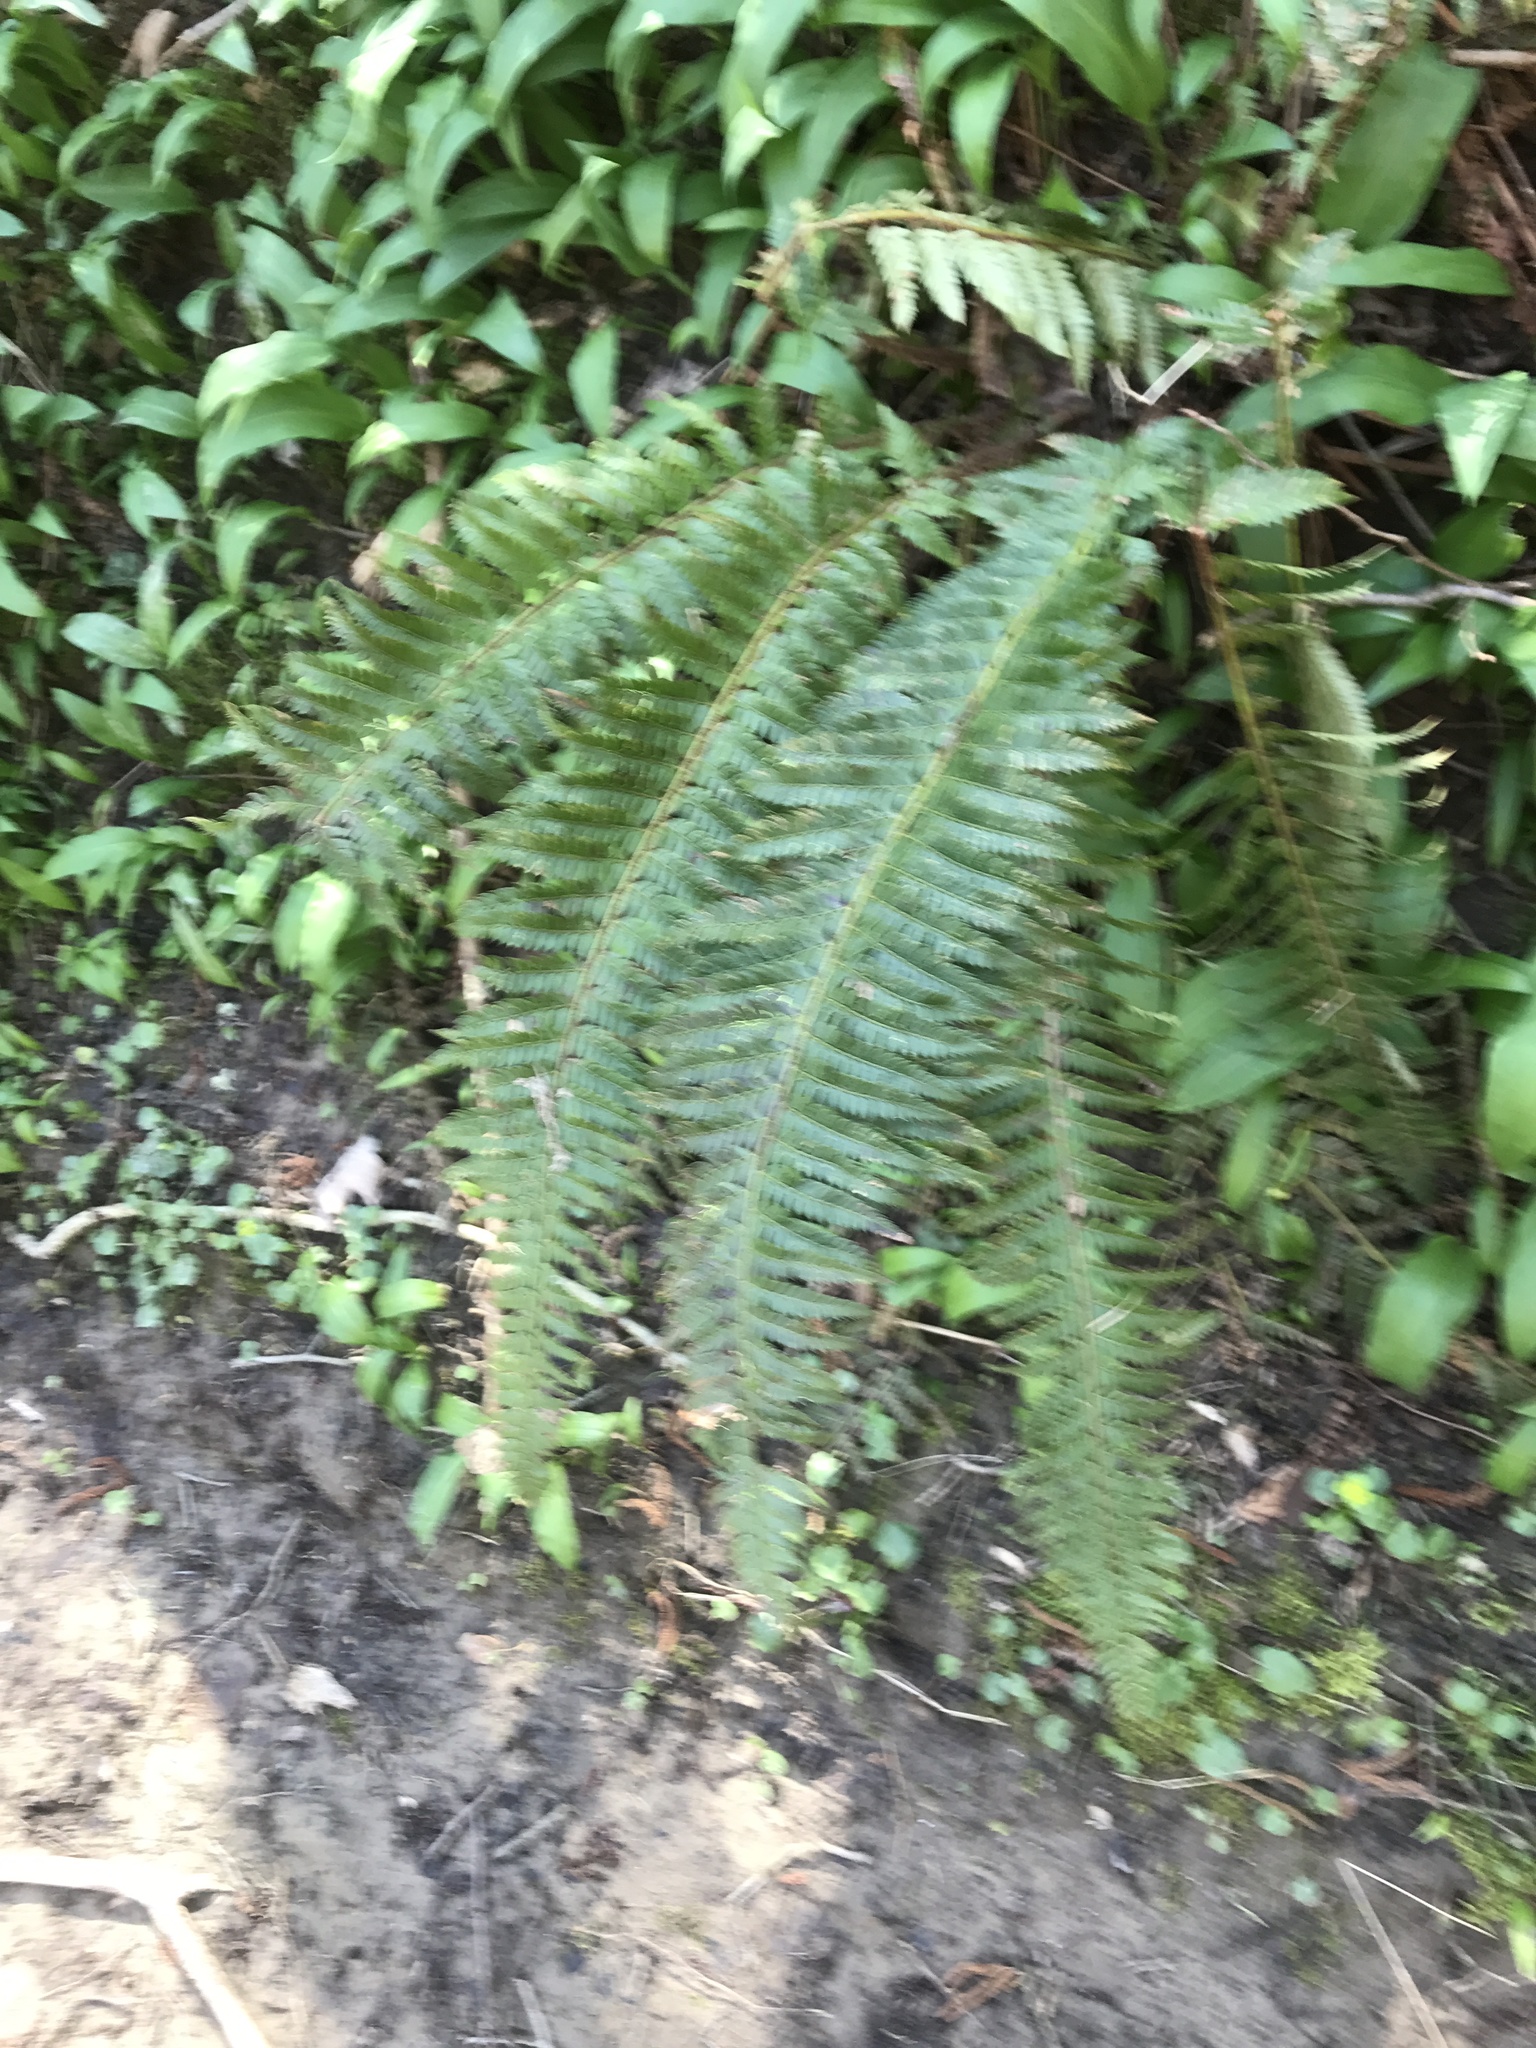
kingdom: Plantae
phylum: Tracheophyta
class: Polypodiopsida
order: Polypodiales
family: Dryopteridaceae
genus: Polystichum
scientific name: Polystichum aculeatum
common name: Hard shield-fern
